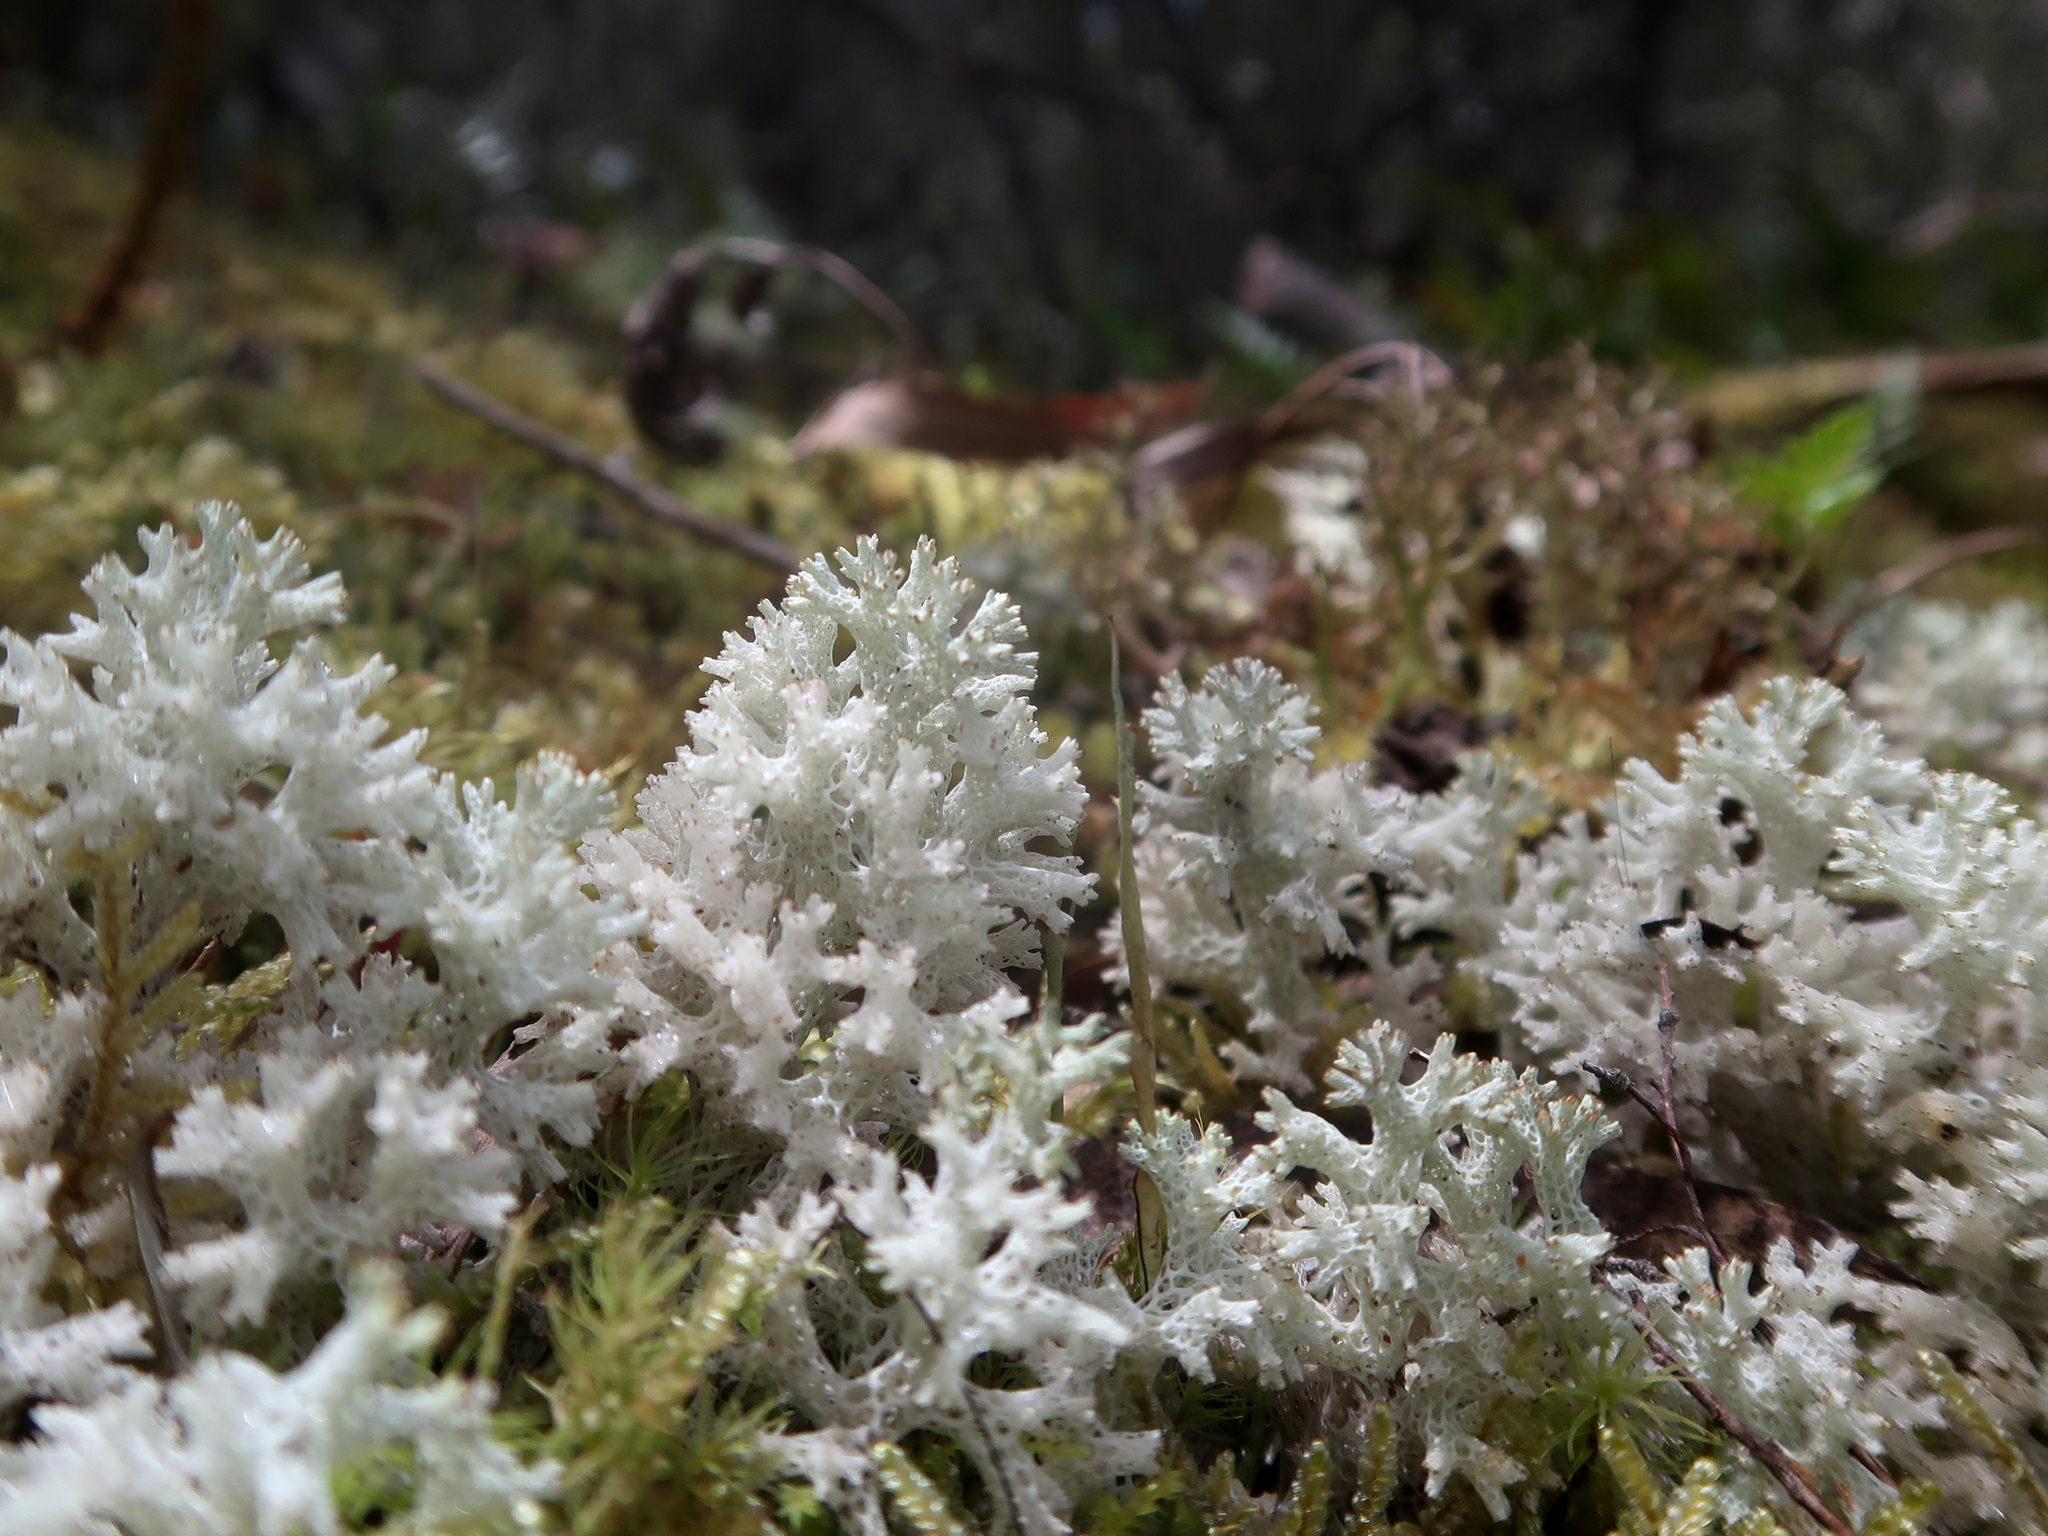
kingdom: Fungi
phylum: Ascomycota
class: Lecanoromycetes
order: Lecanorales
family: Cladoniaceae
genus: Pulchrocladia
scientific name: Pulchrocladia retipora
